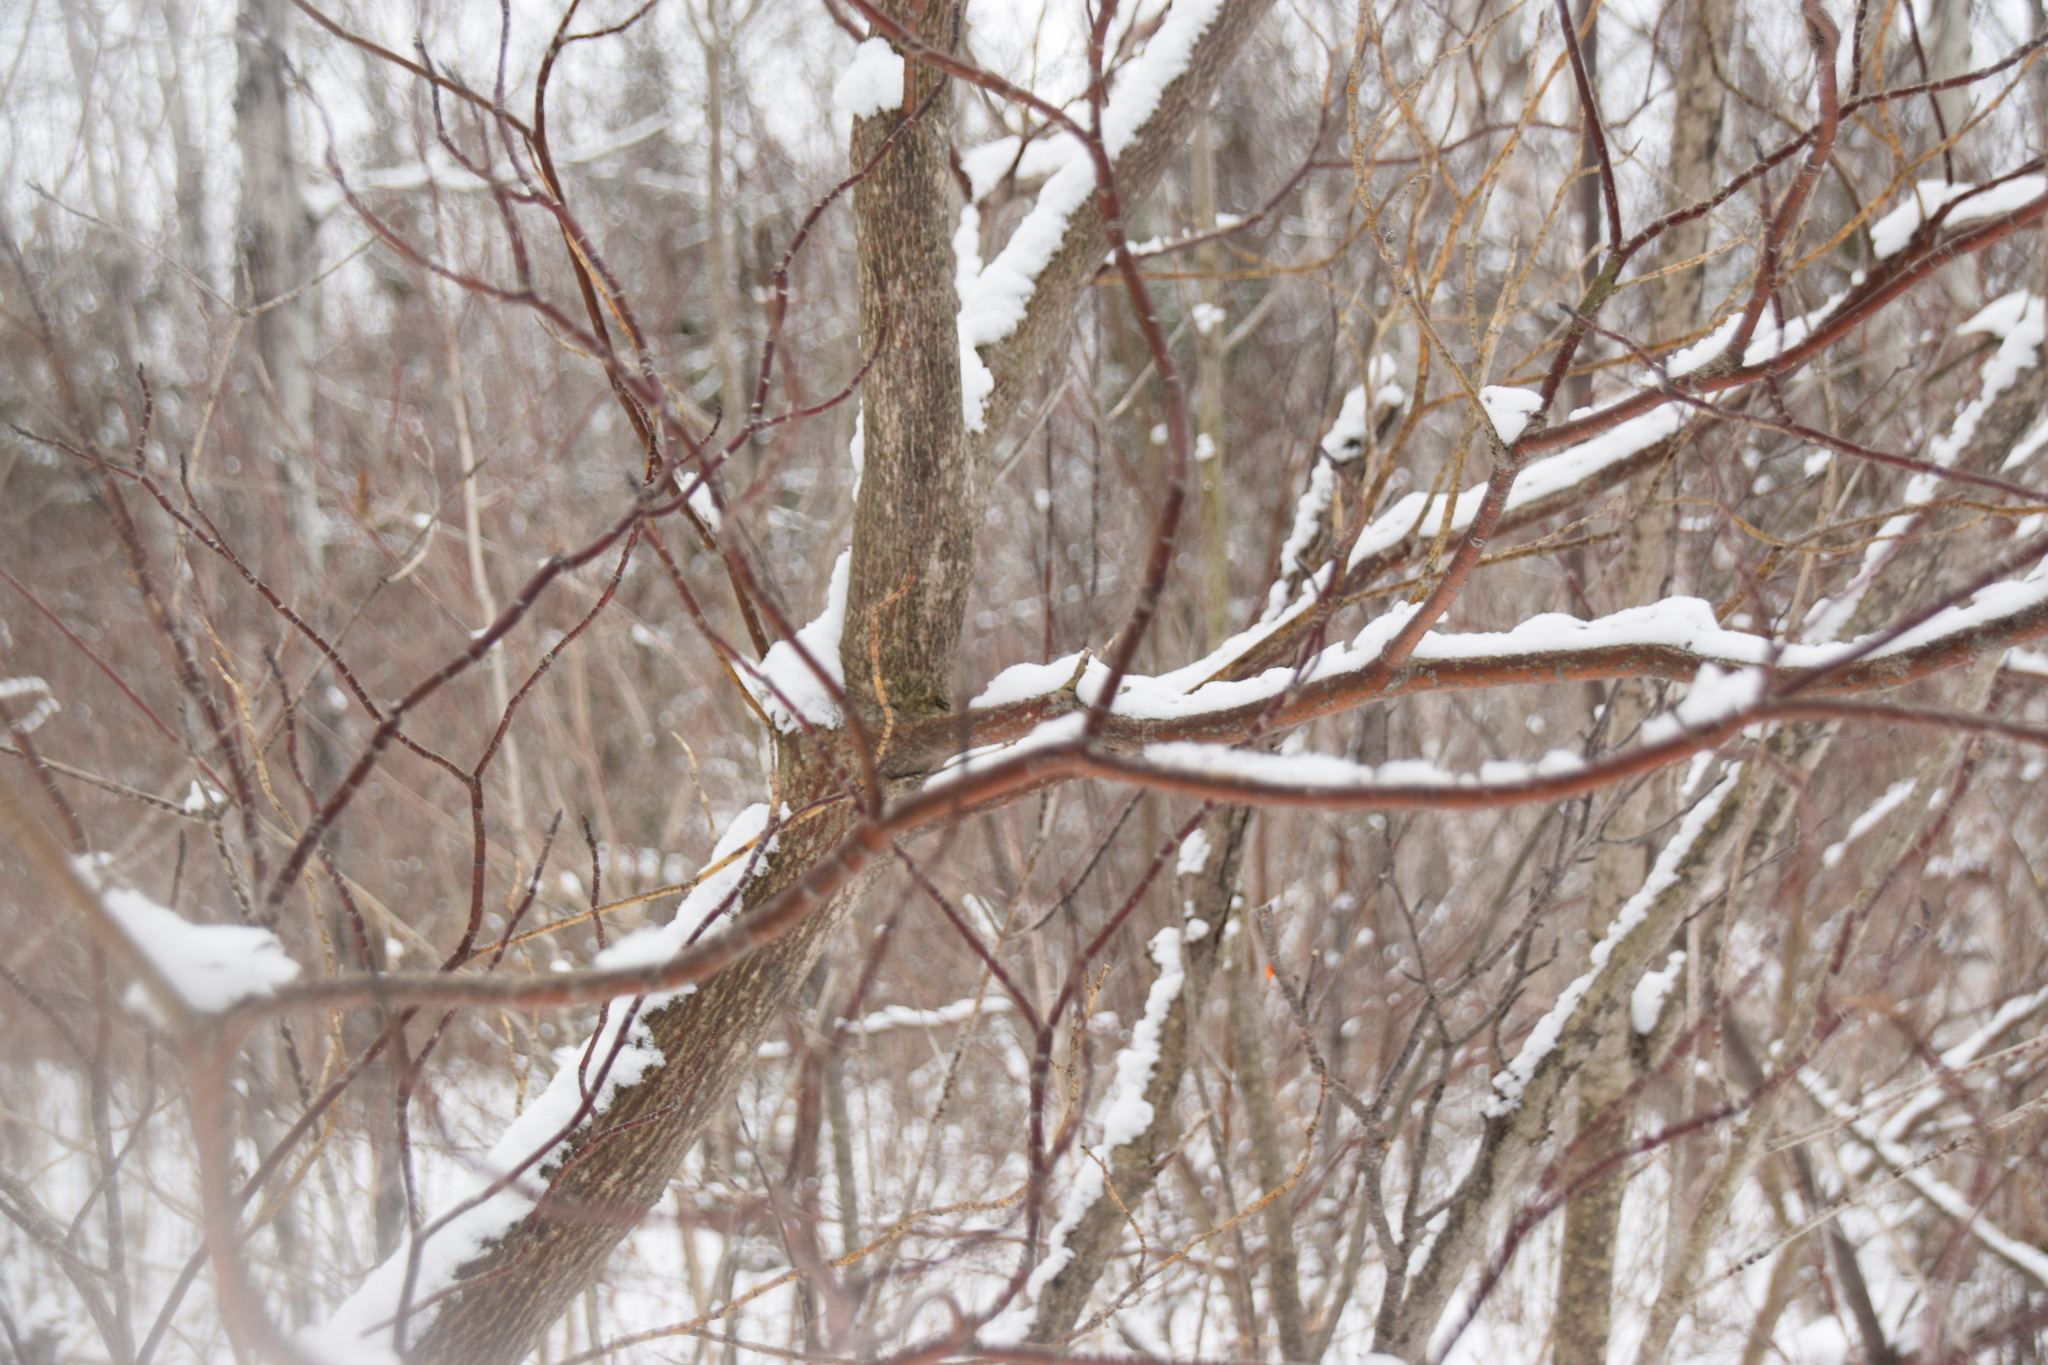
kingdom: Plantae
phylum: Tracheophyta
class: Magnoliopsida
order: Cornales
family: Cornaceae
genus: Cornus
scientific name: Cornus alternifolia
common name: Pagoda dogwood
